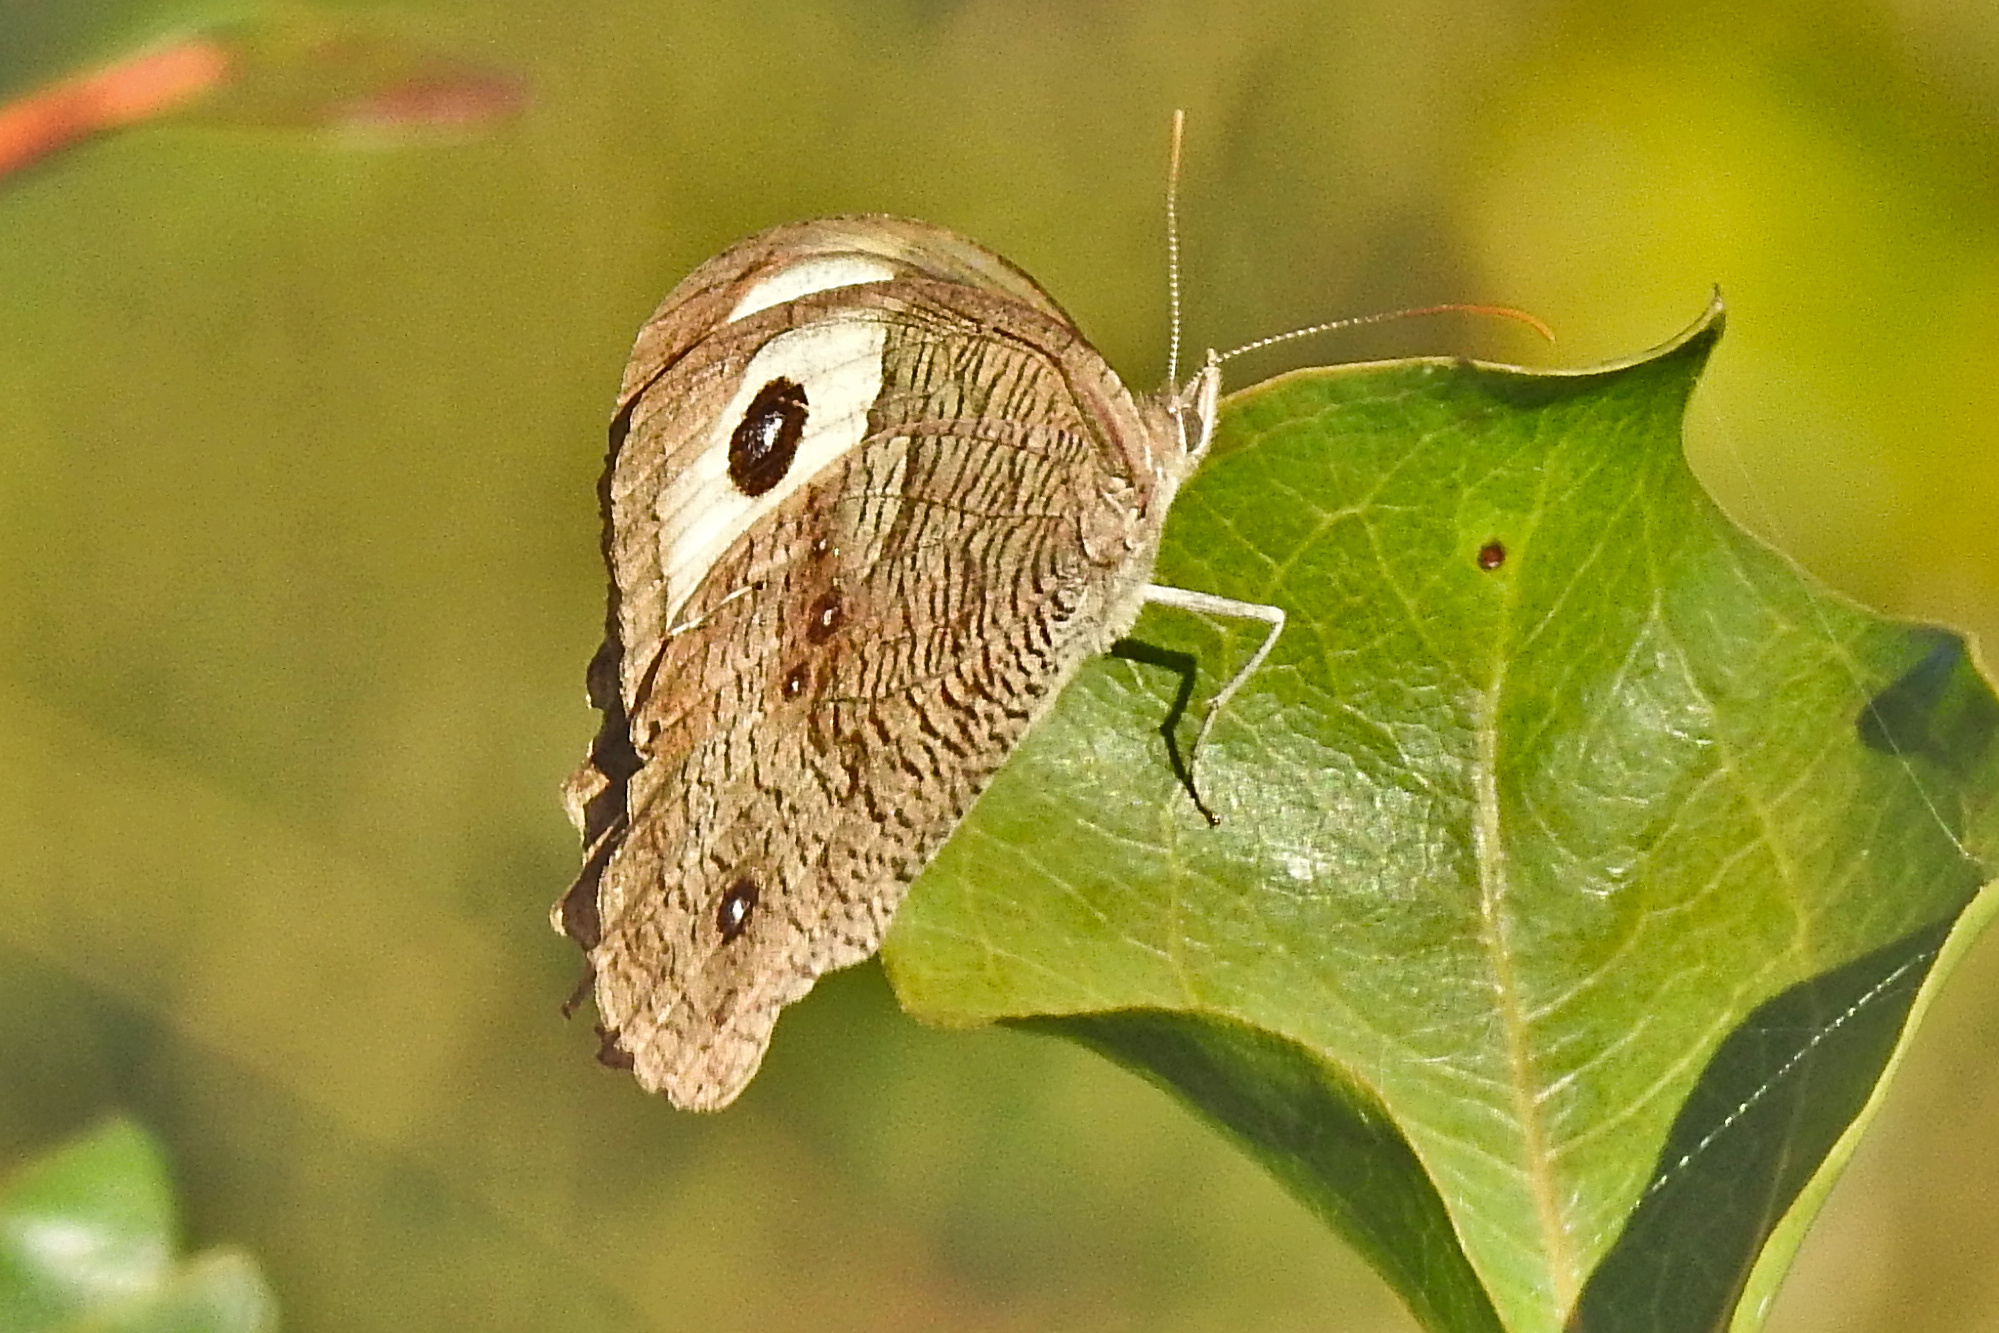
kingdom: Animalia
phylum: Arthropoda
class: Insecta
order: Lepidoptera
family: Nymphalidae
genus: Cercyonis
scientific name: Cercyonis pegala
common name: Common wood-nymph
